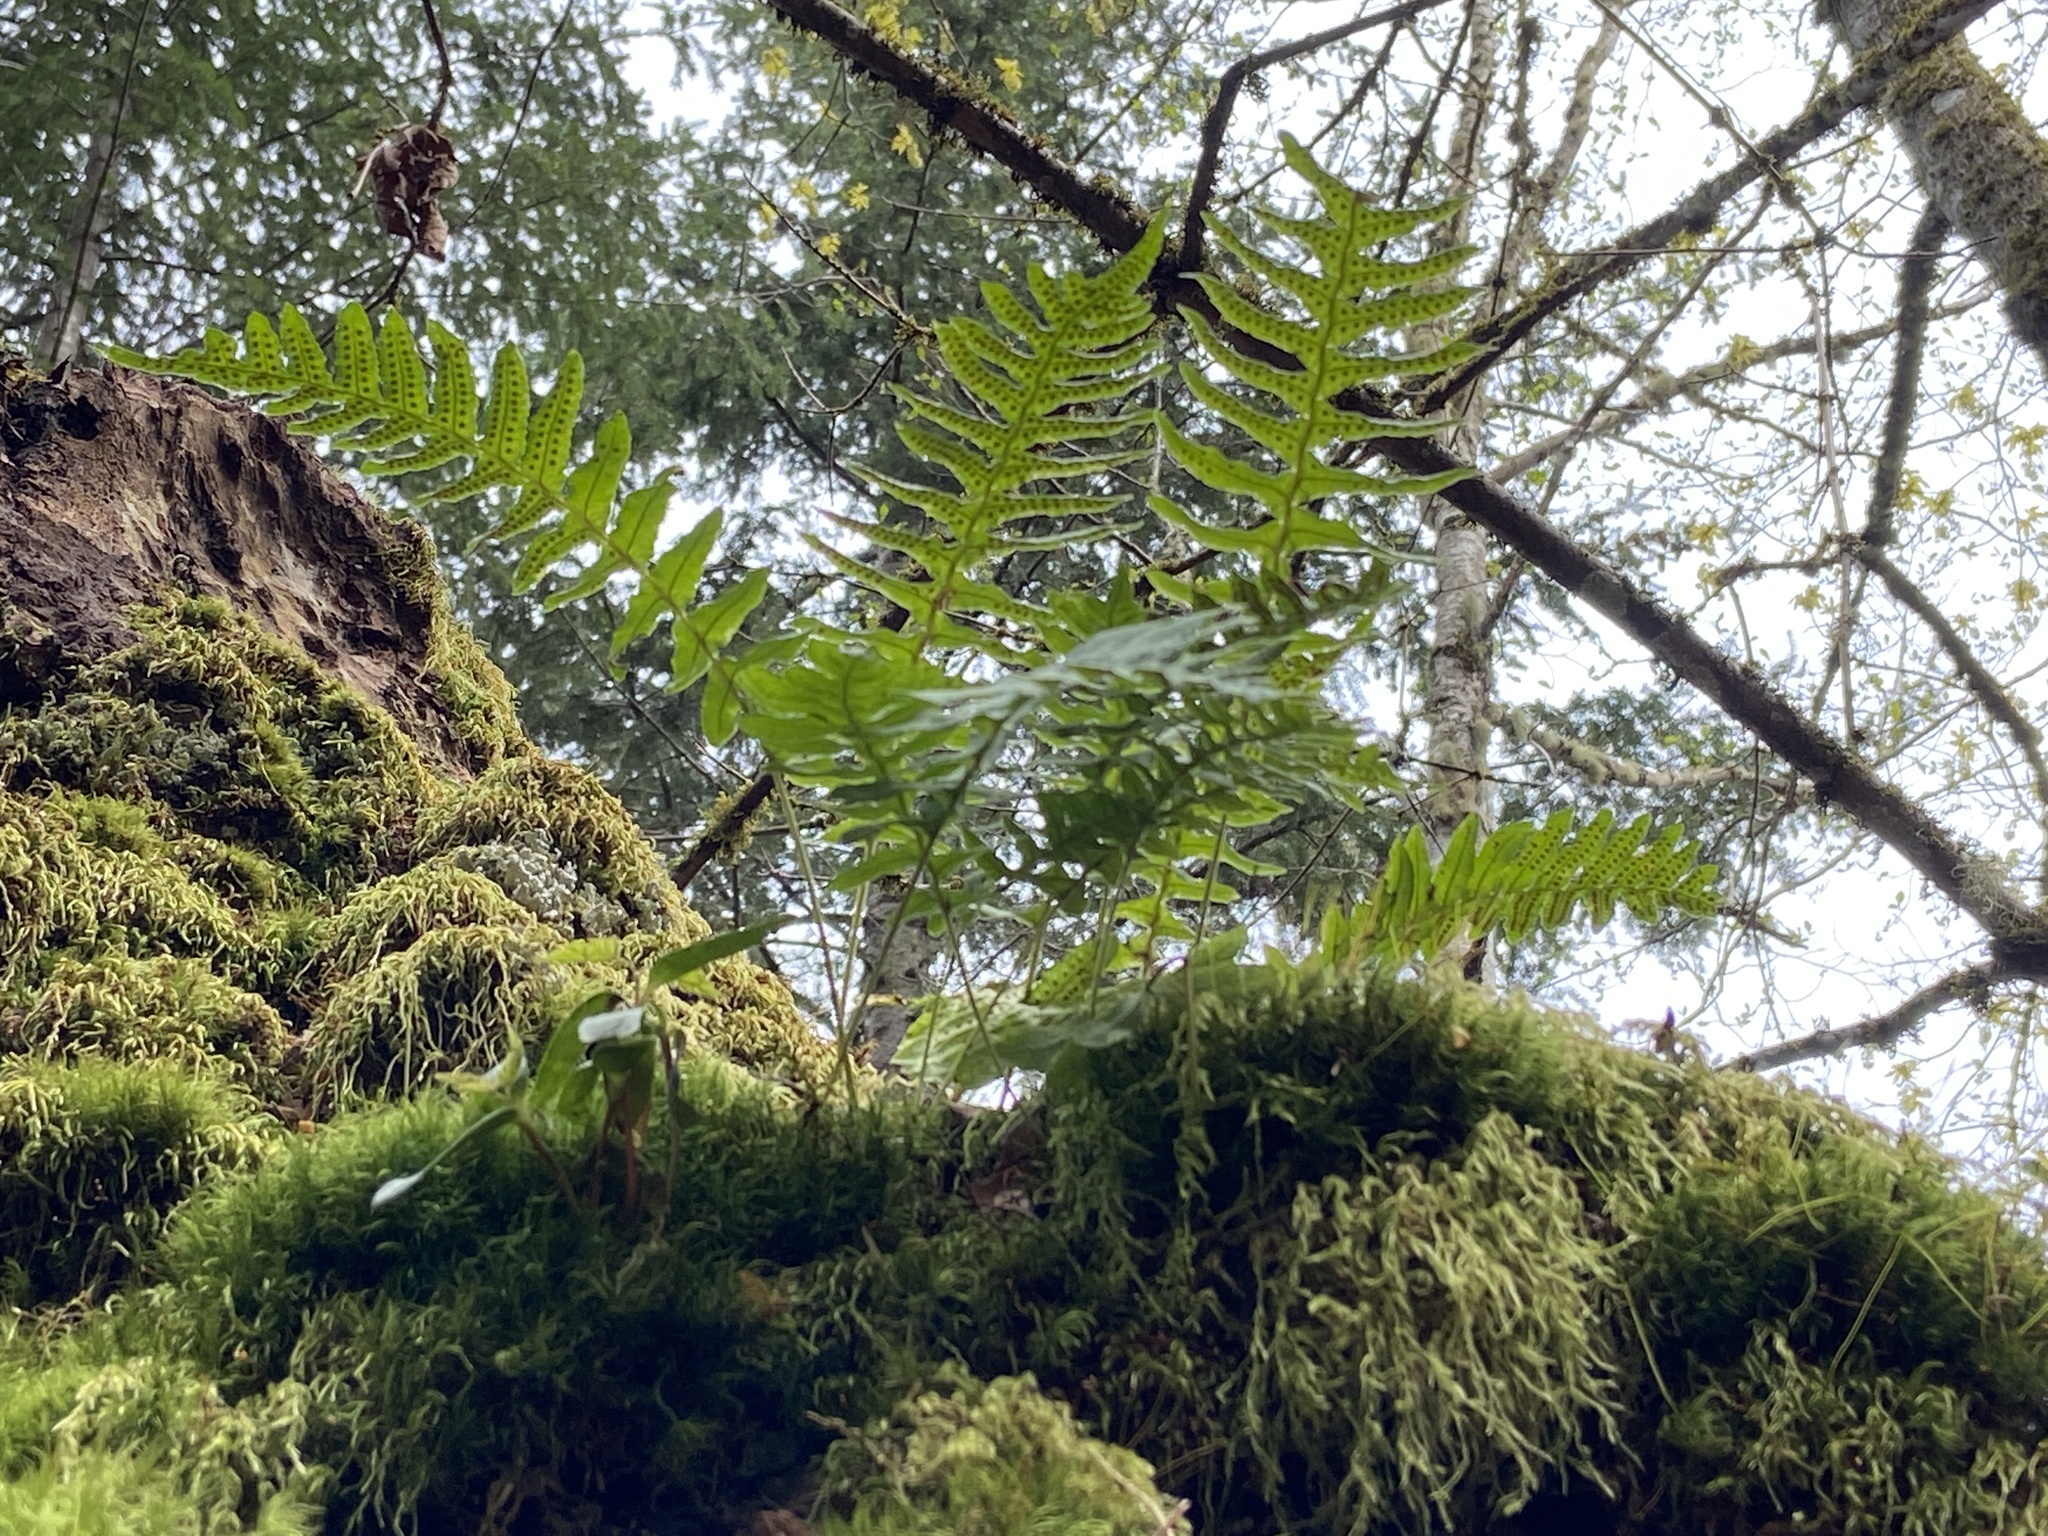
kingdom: Plantae
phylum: Tracheophyta
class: Polypodiopsida
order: Polypodiales
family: Polypodiaceae
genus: Polypodium
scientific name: Polypodium glycyrrhiza
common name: Licorice fern
